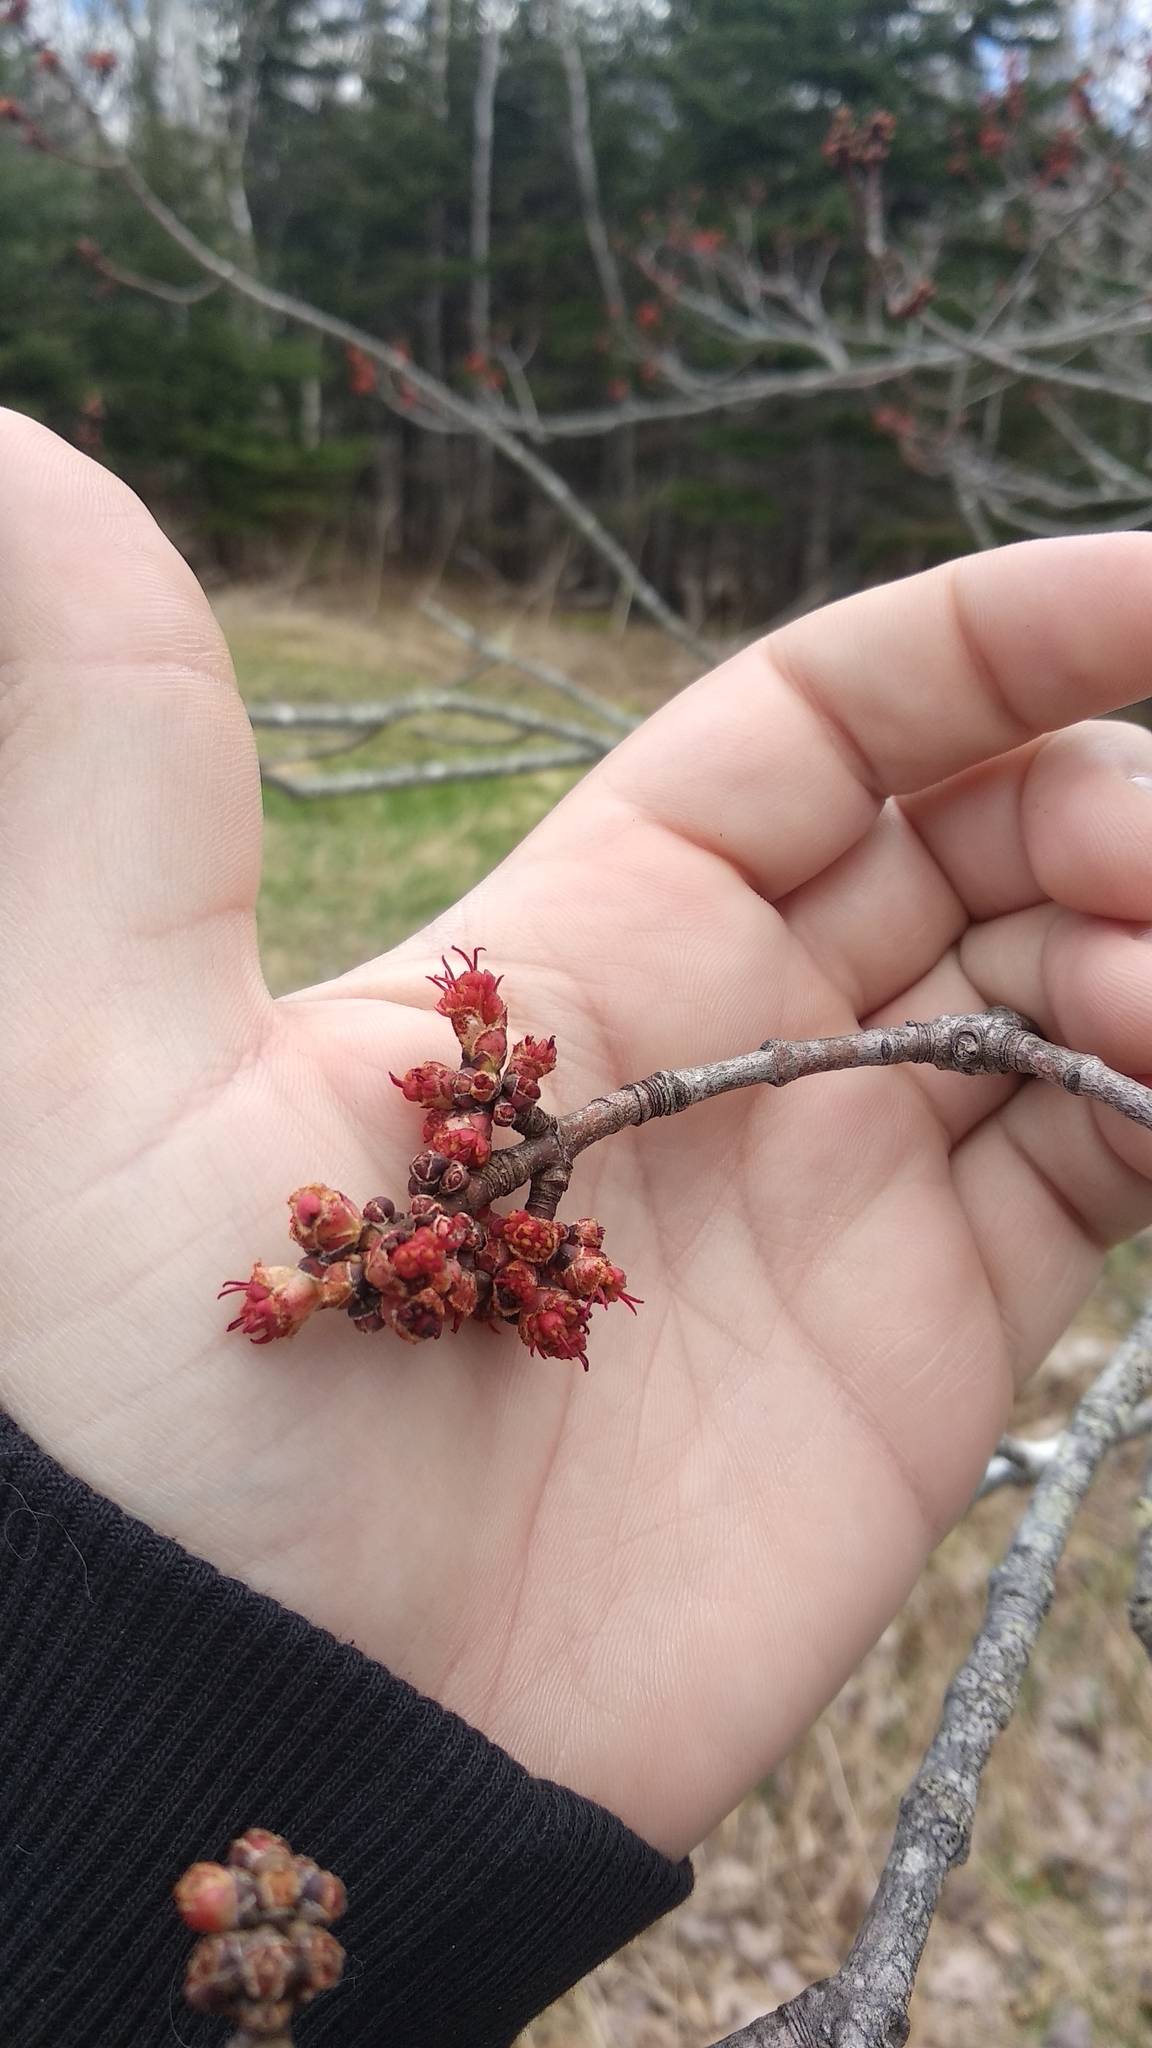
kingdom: Plantae
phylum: Tracheophyta
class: Magnoliopsida
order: Sapindales
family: Sapindaceae
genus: Acer
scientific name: Acer rubrum
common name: Red maple
